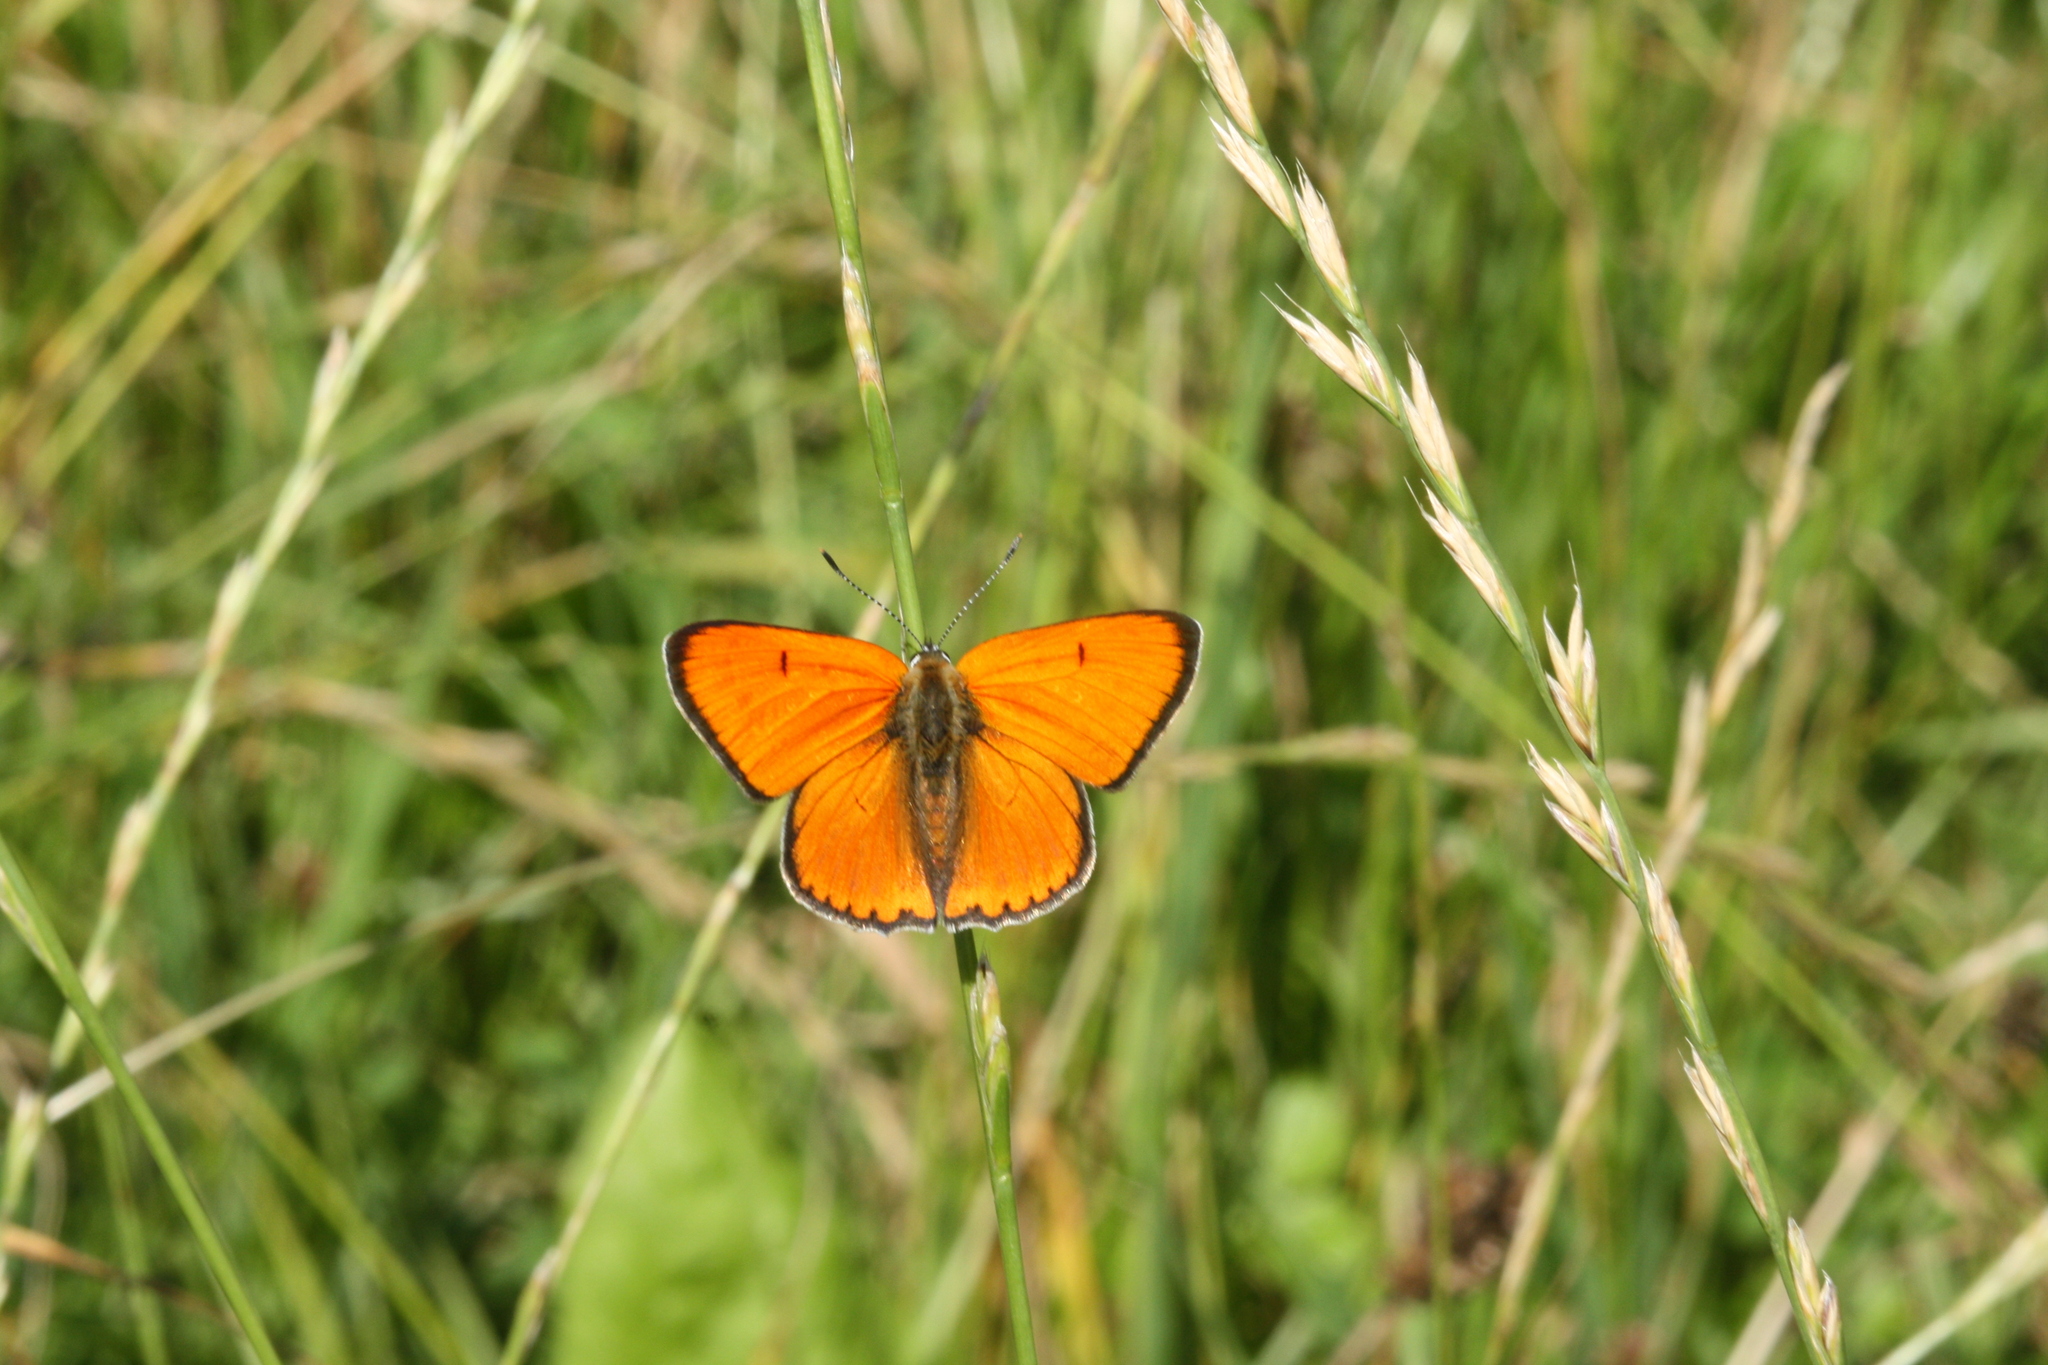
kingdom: Animalia
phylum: Arthropoda
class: Insecta
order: Lepidoptera
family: Lycaenidae
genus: Lycaena
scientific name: Lycaena dispar
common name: Large copper
